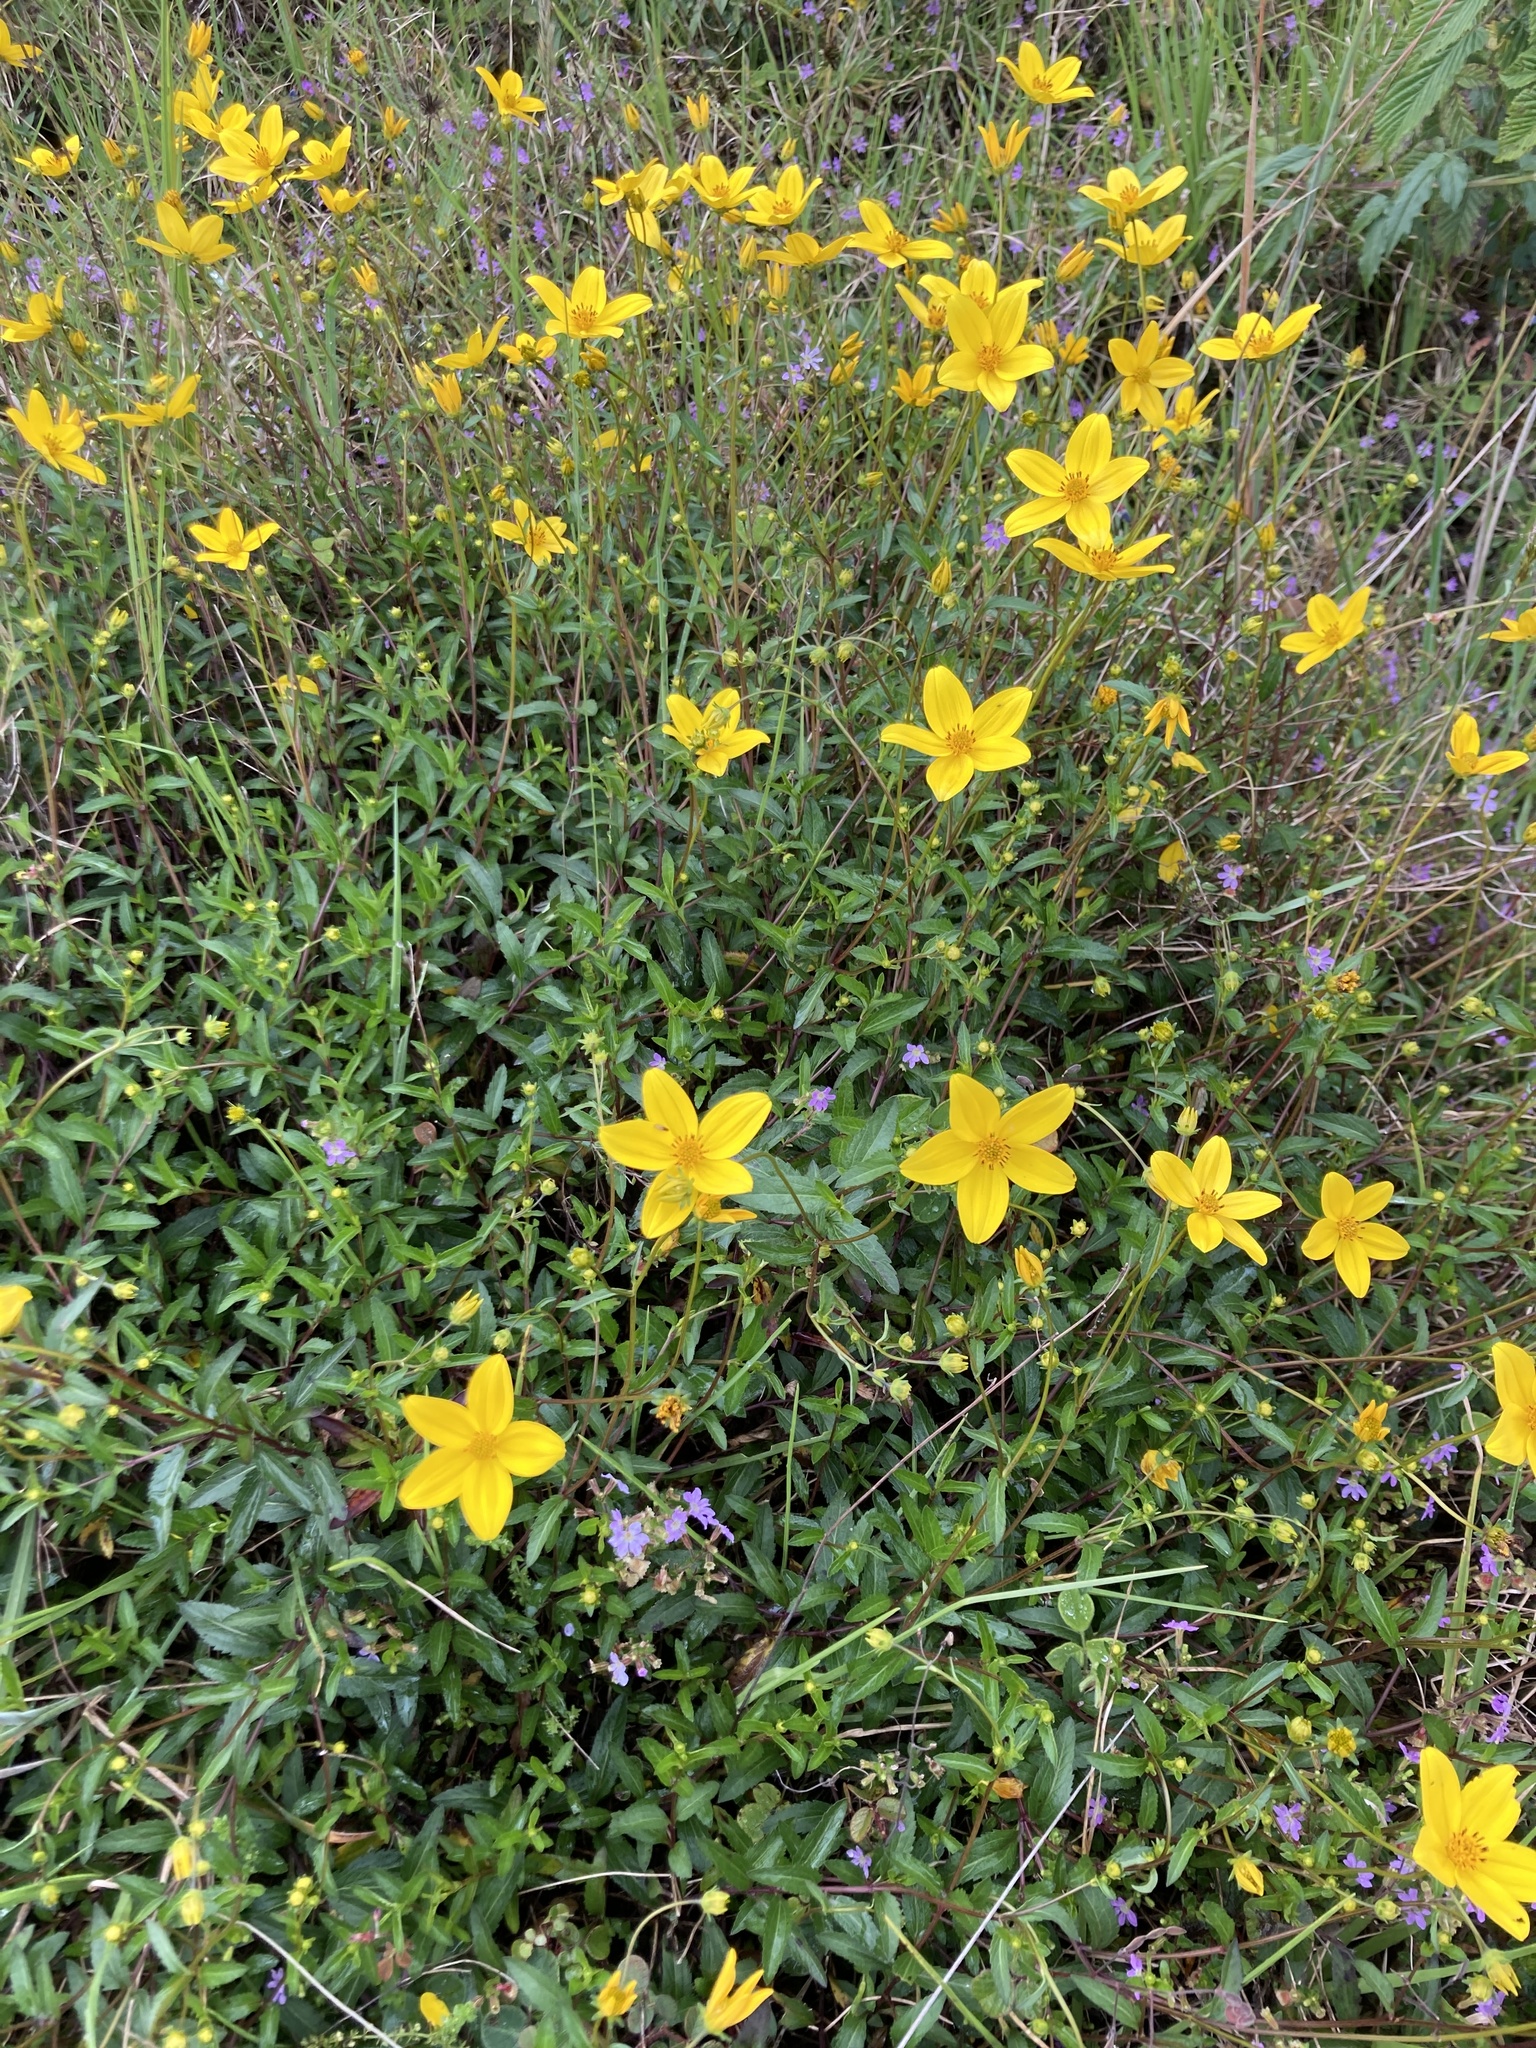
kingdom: Plantae
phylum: Tracheophyta
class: Magnoliopsida
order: Asterales
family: Asteraceae
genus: Bidens
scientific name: Bidens laevis
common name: Larger bur-marigold
